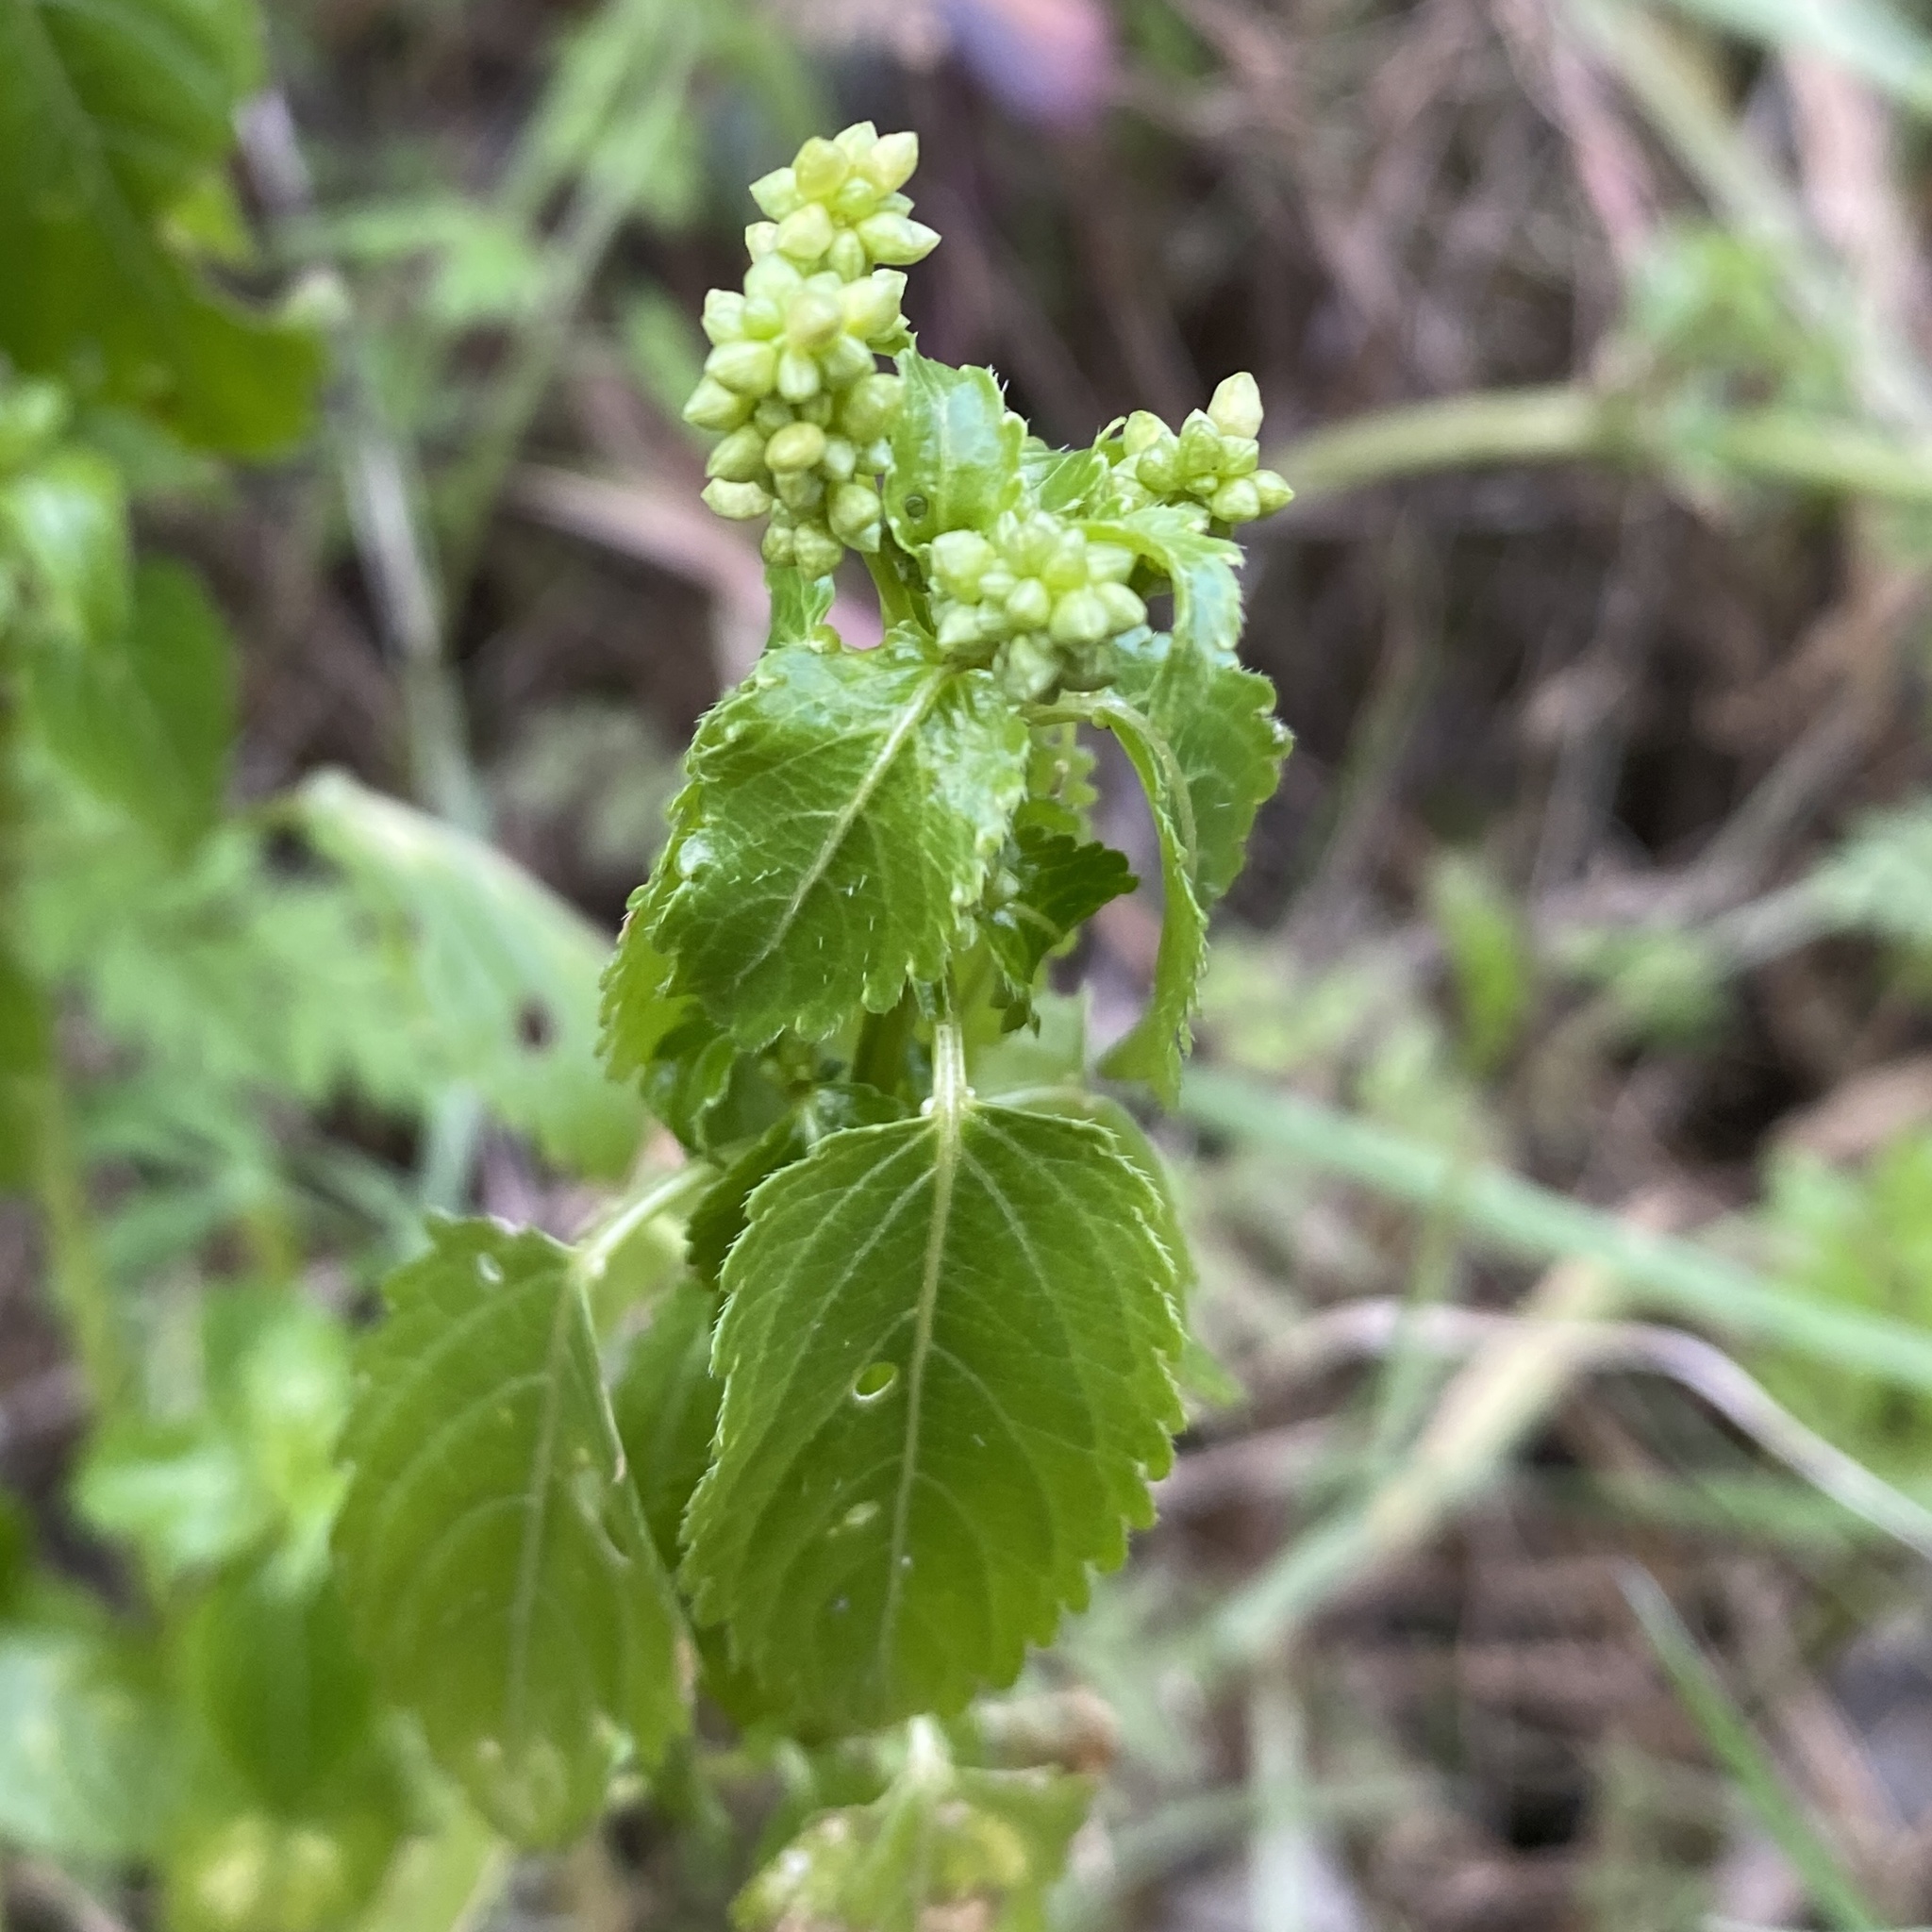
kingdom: Plantae
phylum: Tracheophyta
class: Magnoliopsida
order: Malpighiales
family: Euphorbiaceae
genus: Mercurialis
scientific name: Mercurialis annua
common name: Annual mercury
